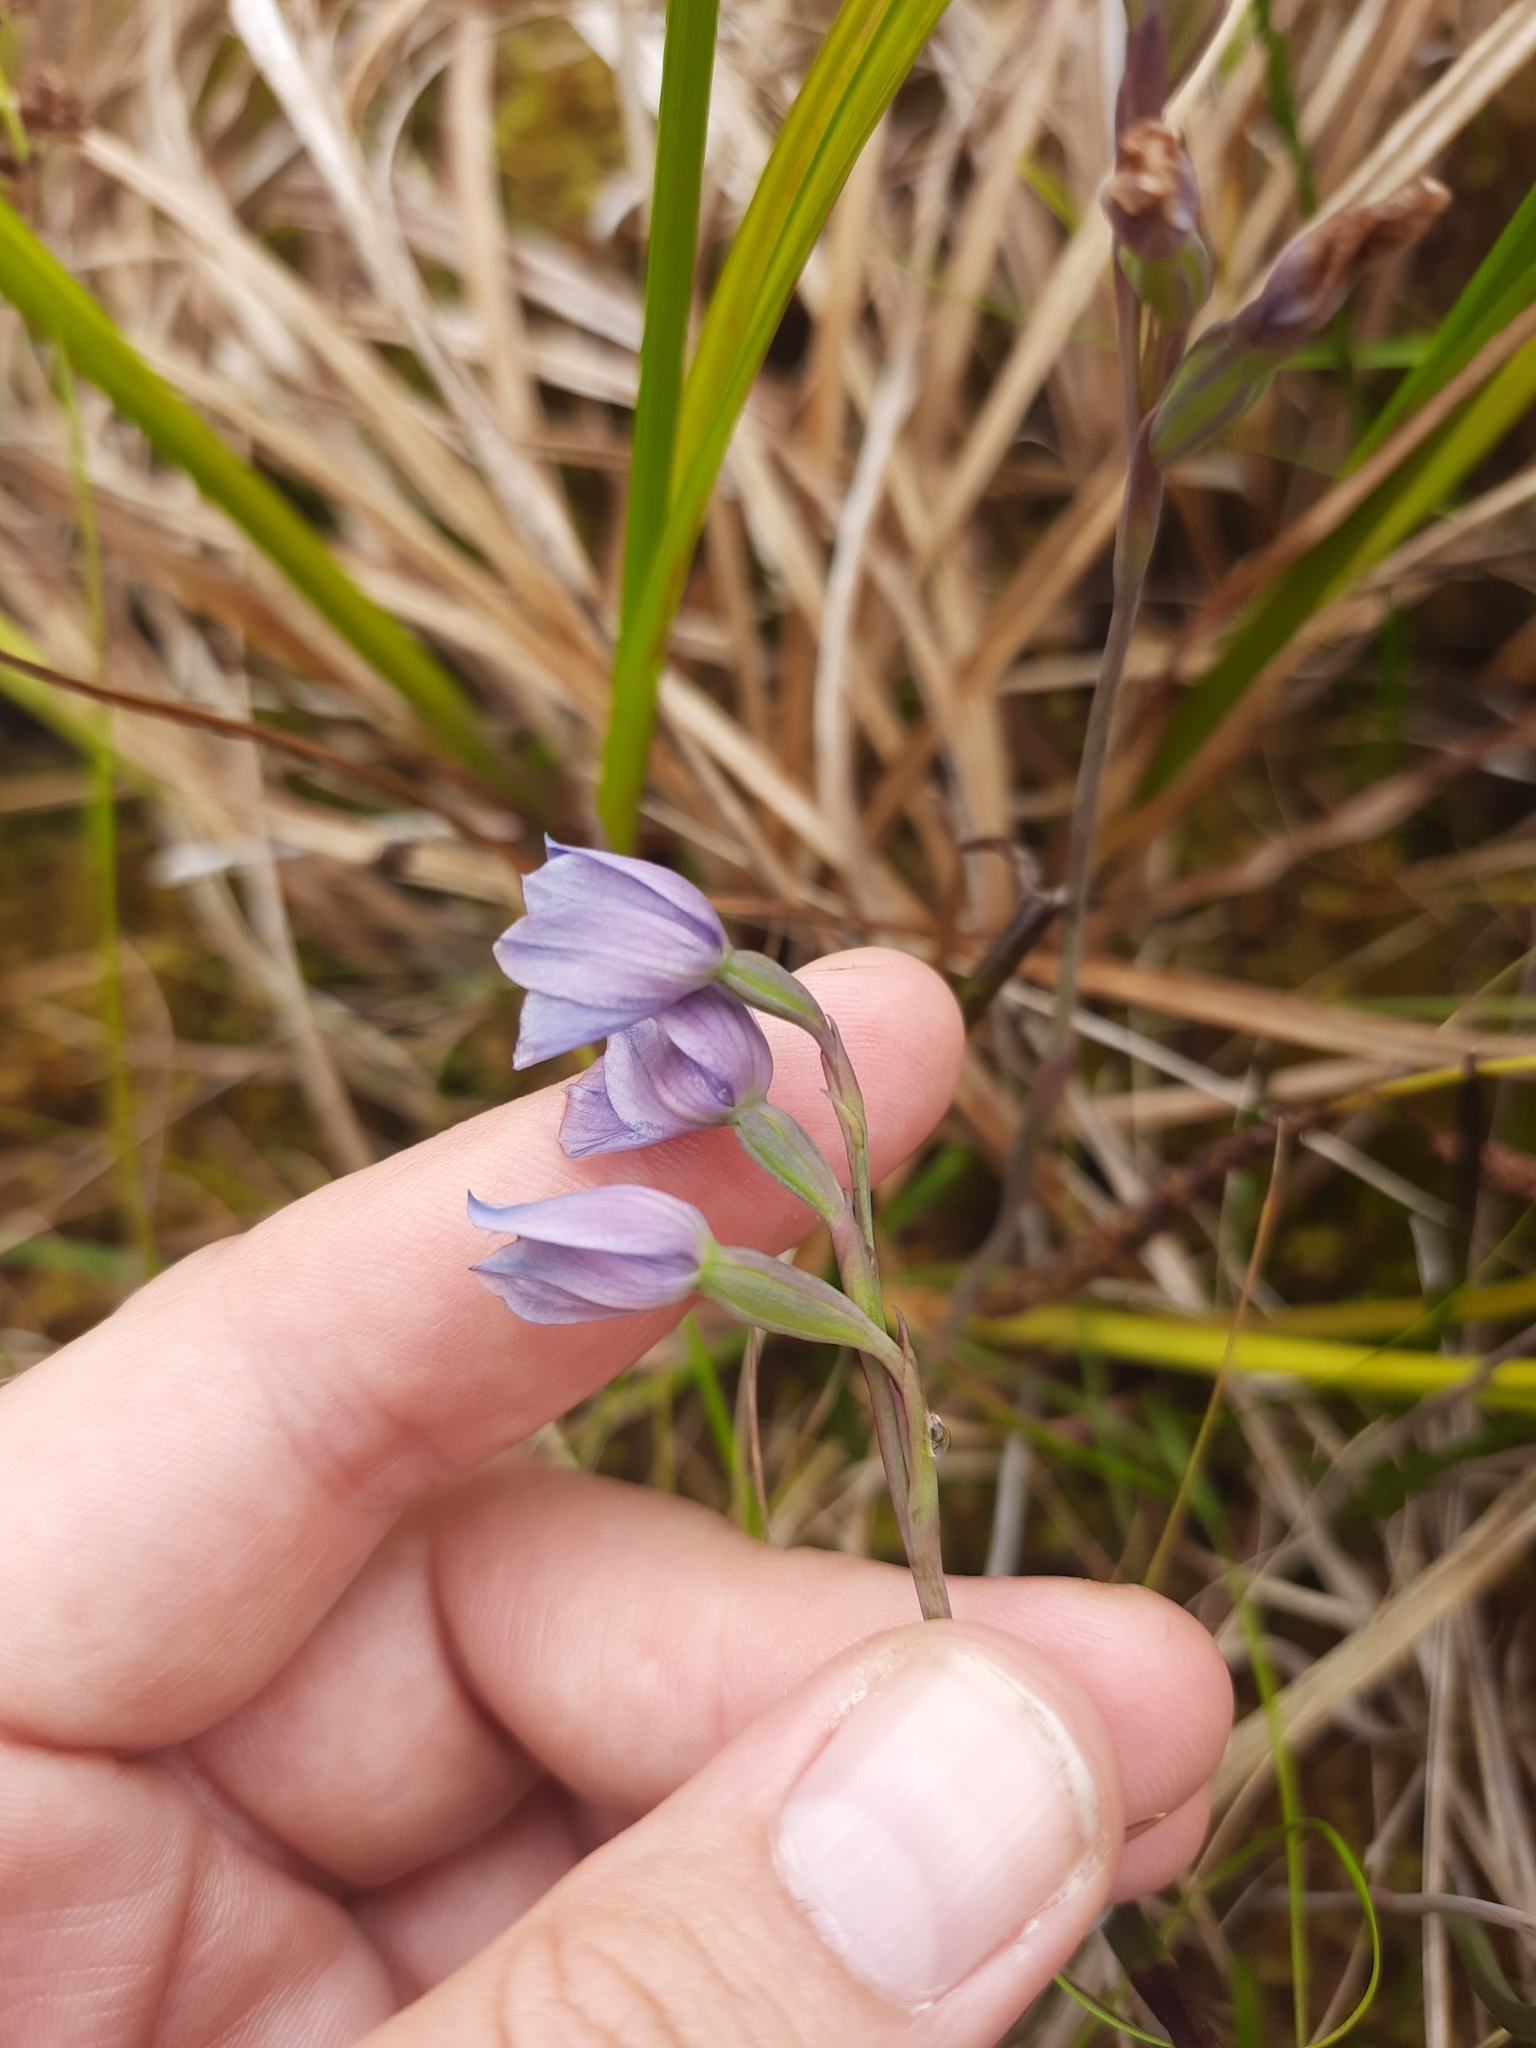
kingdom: Plantae
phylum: Tracheophyta
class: Liliopsida
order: Asparagales
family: Orchidaceae
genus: Thelymitra
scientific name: Thelymitra cyanea
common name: Blue sun-orchid
